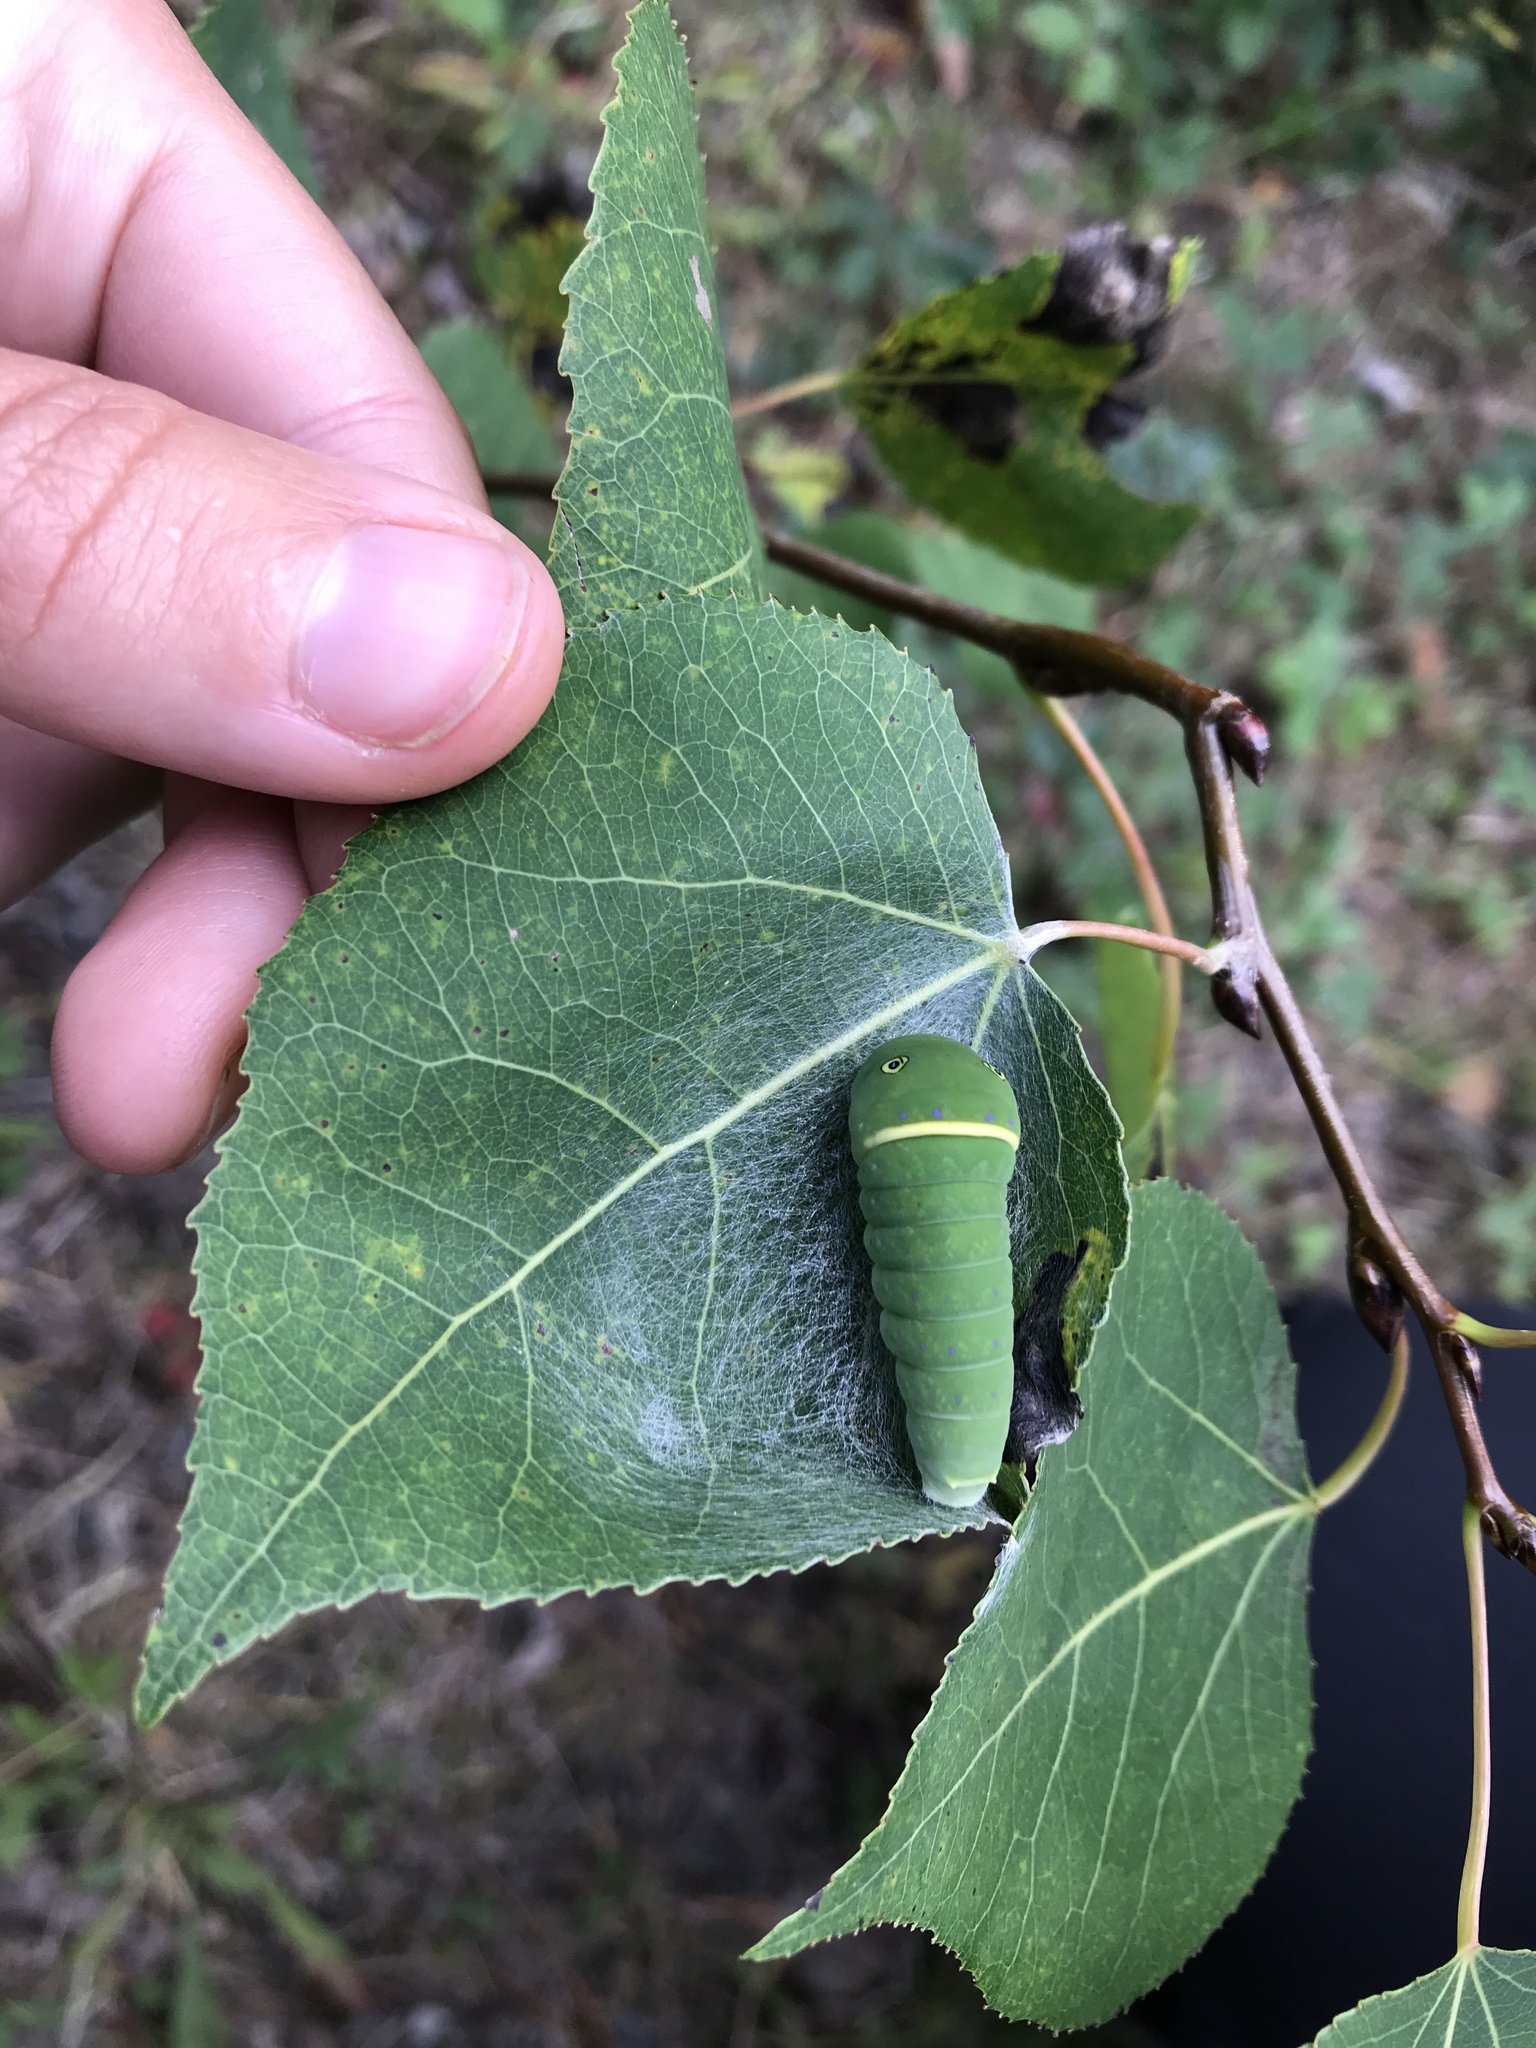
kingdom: Animalia
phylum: Arthropoda
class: Insecta
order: Lepidoptera
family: Papilionidae
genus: Papilio
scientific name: Papilio canadensis
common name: Canadian tiger swallowtail
